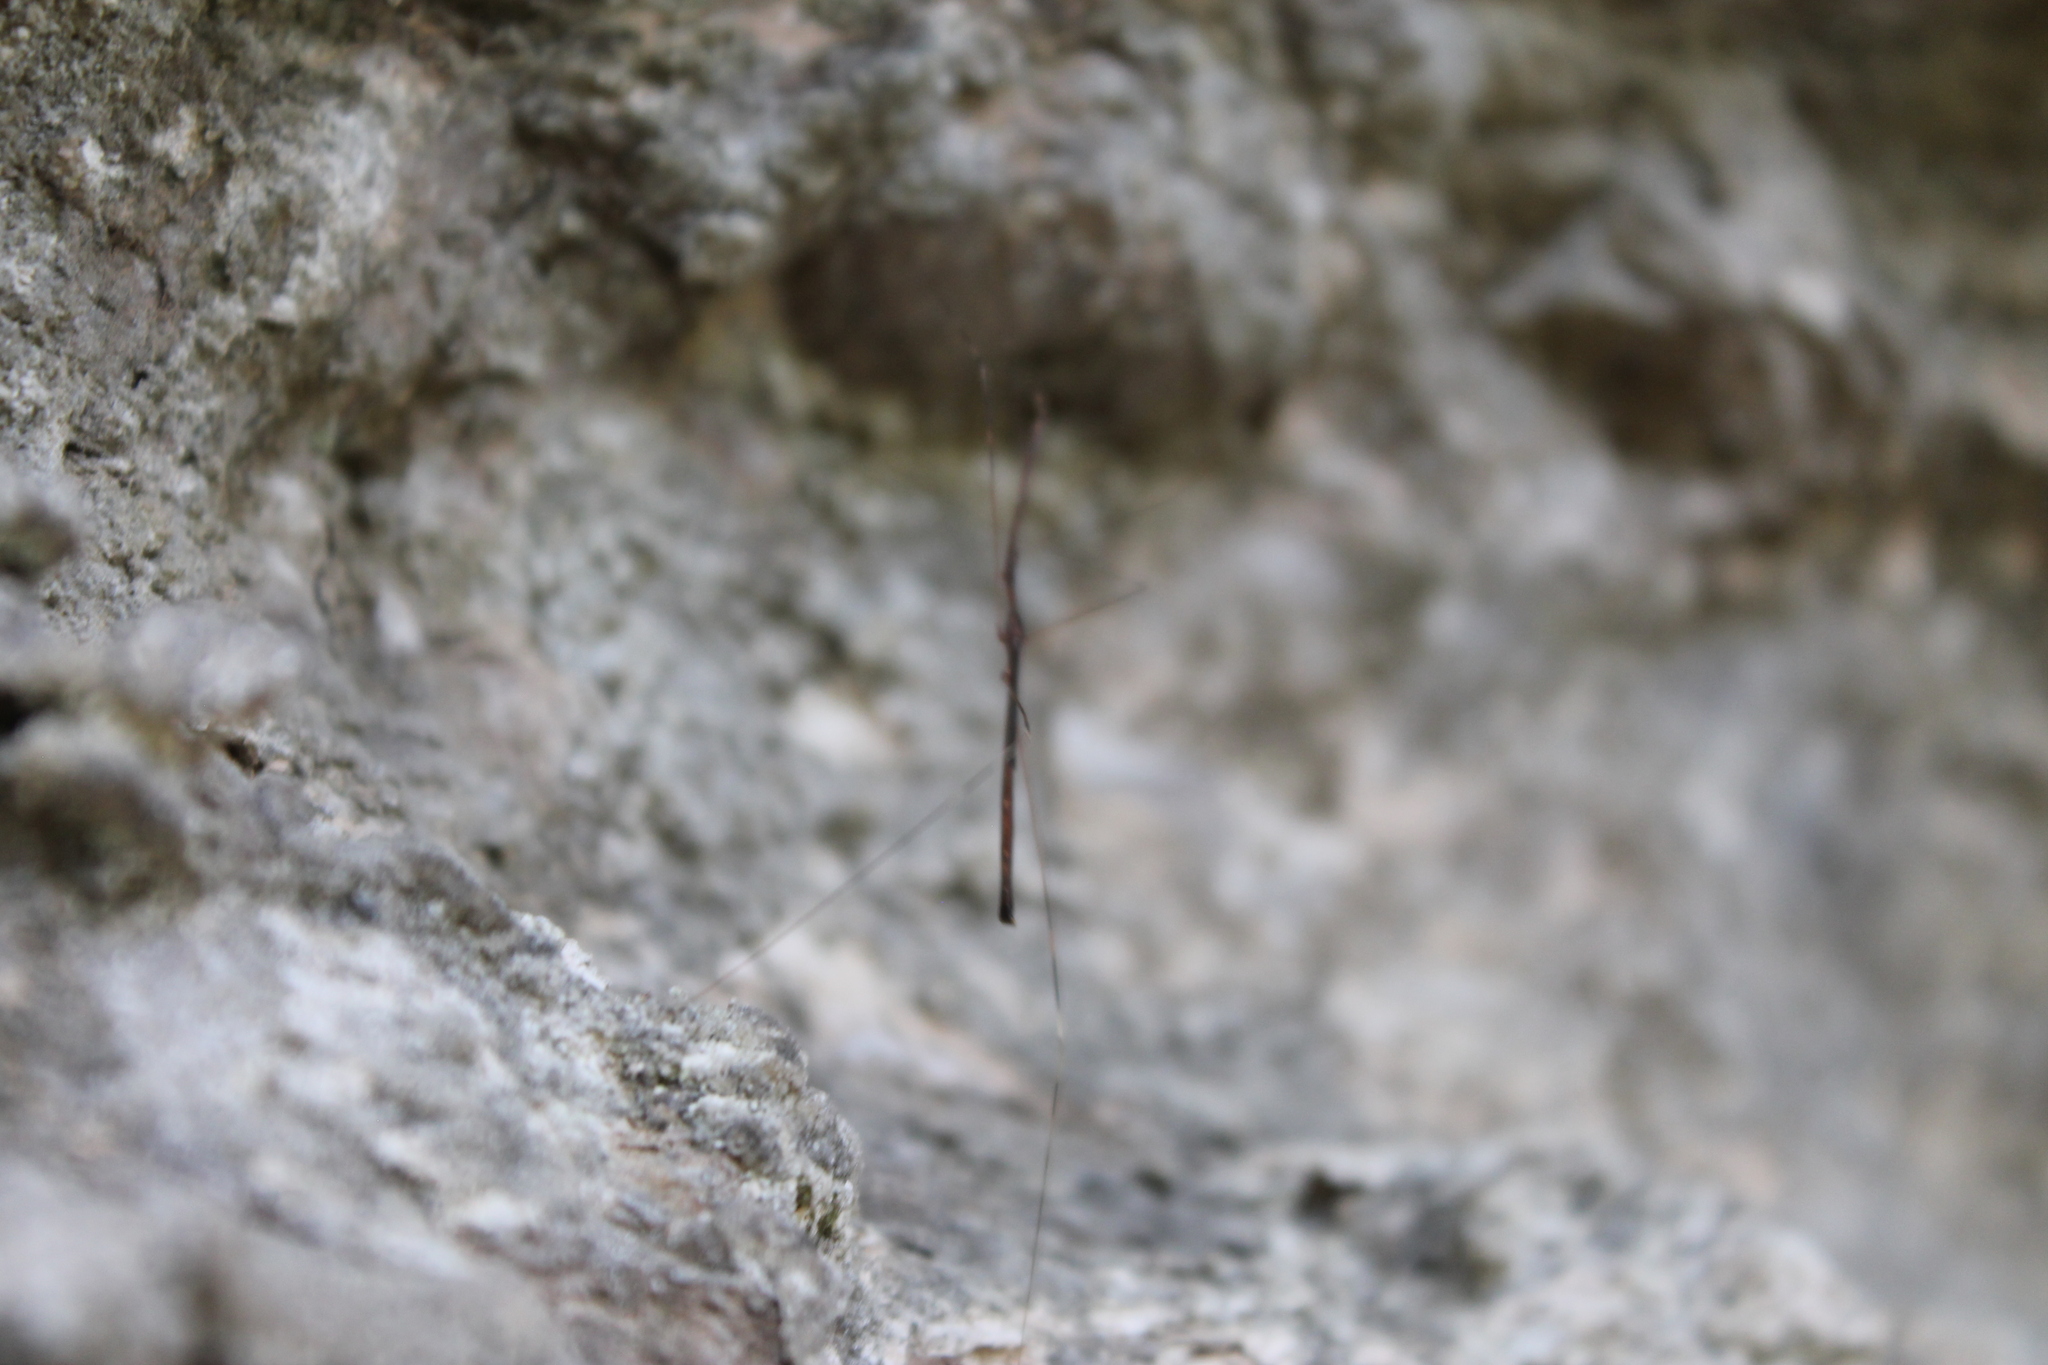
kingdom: Animalia
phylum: Arthropoda
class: Insecta
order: Hemiptera
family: Reduviidae
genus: Emesaya
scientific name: Emesaya brevipennis
